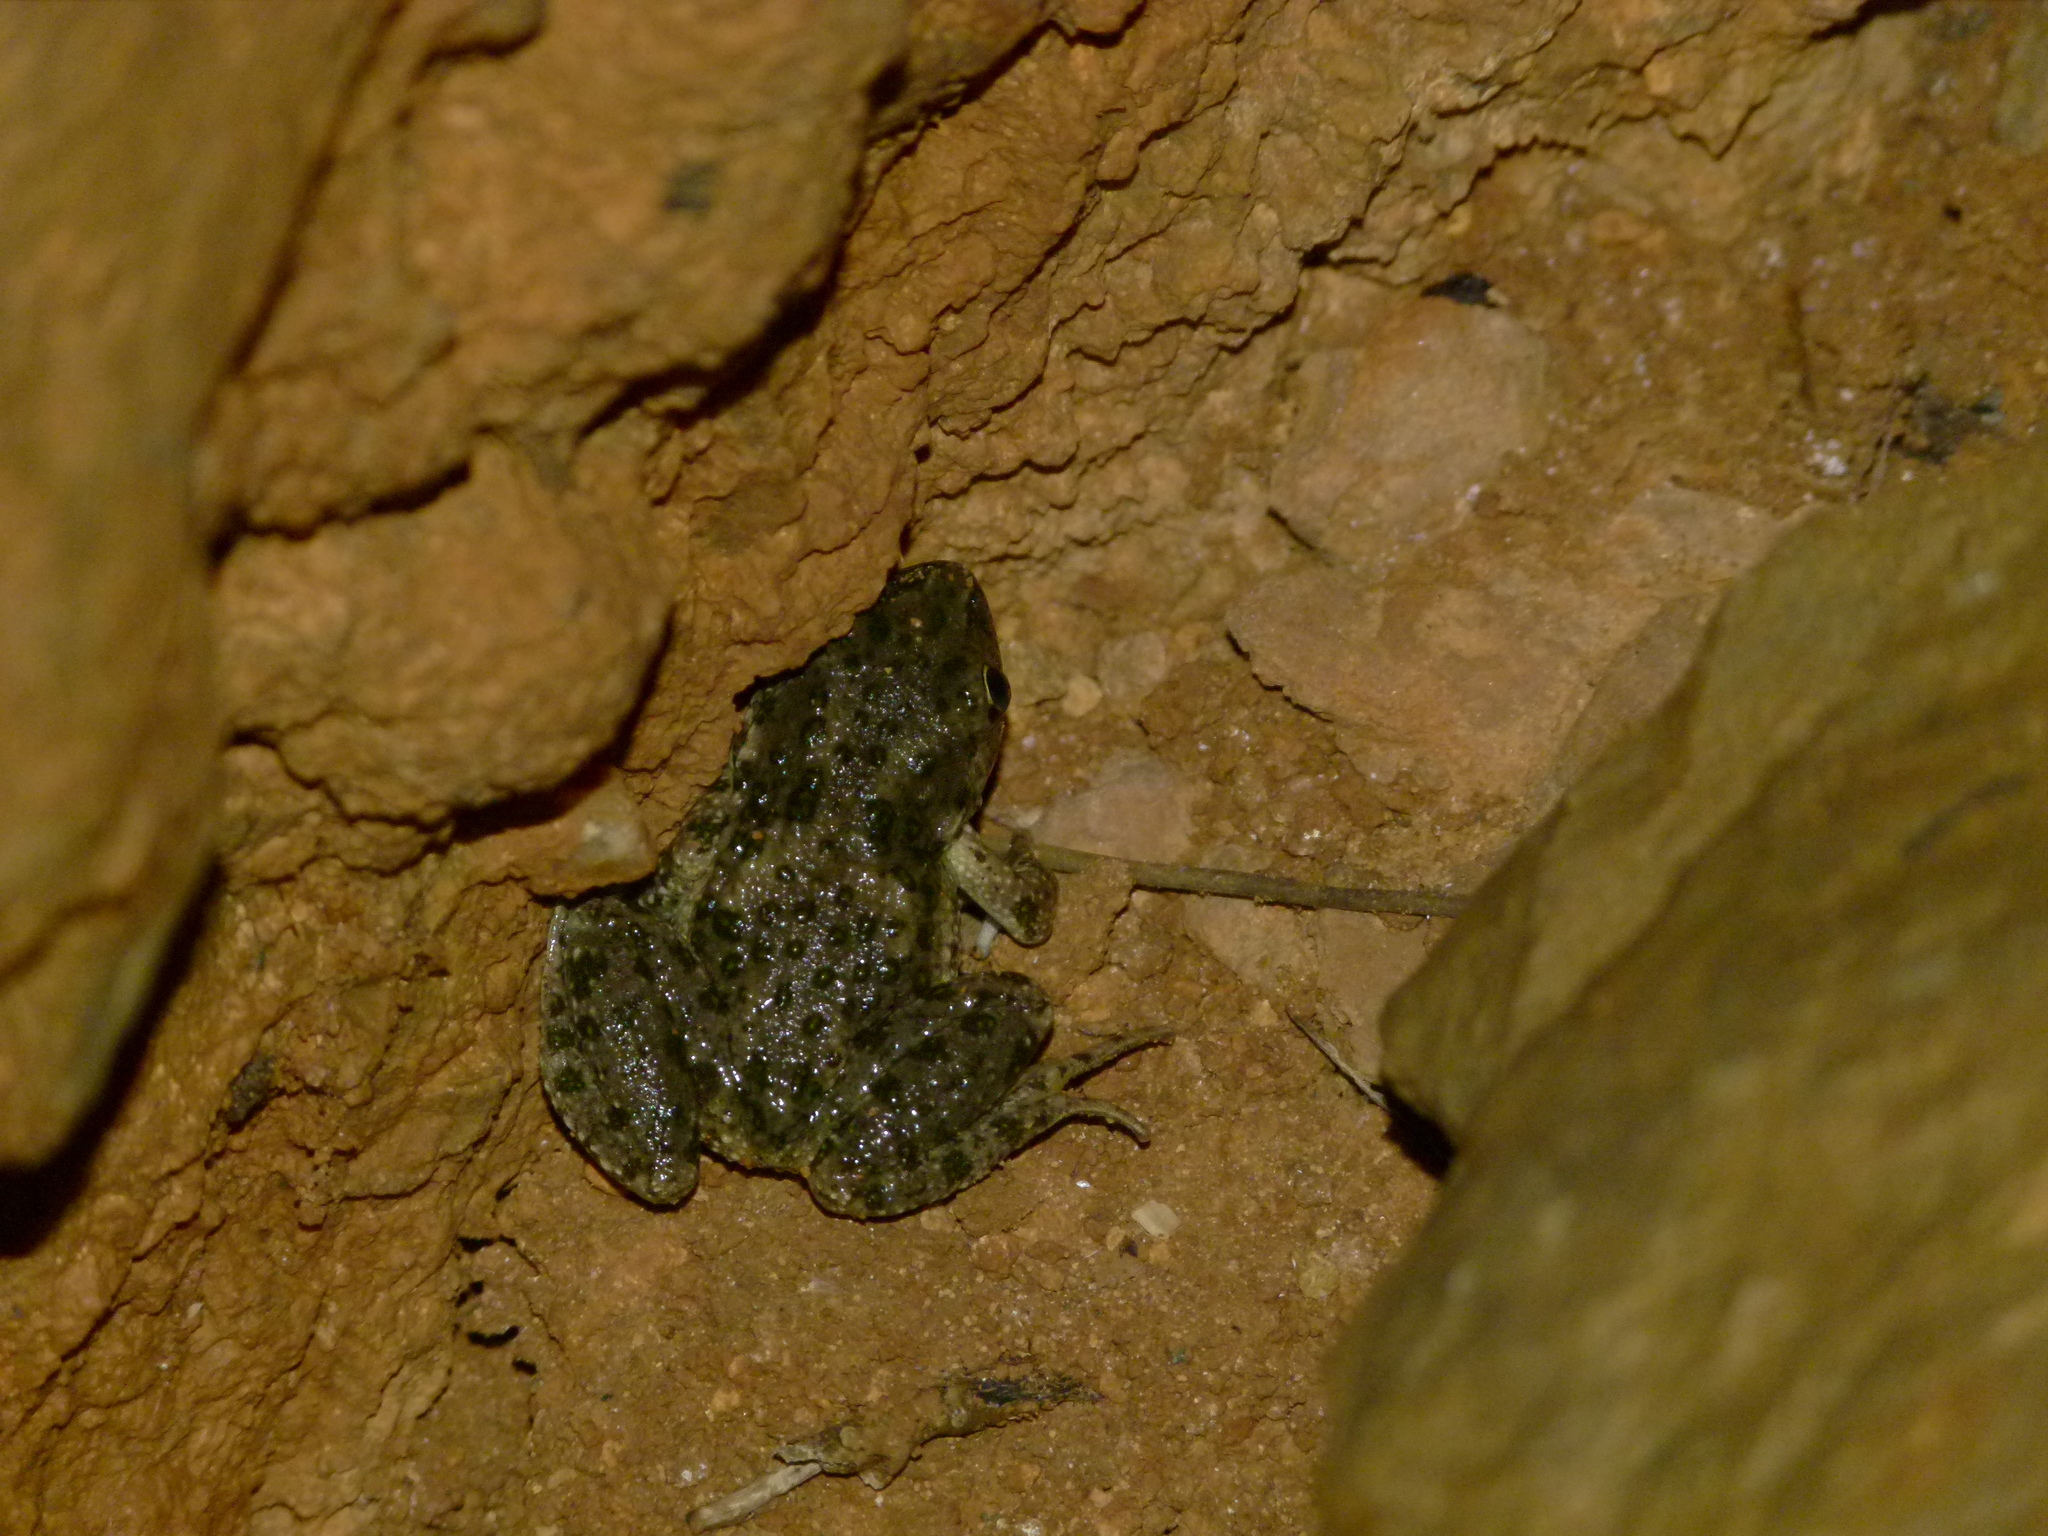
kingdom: Animalia
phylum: Chordata
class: Amphibia
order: Anura
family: Pelodytidae
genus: Pelodytes
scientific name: Pelodytes punctatus
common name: Parsley frog
